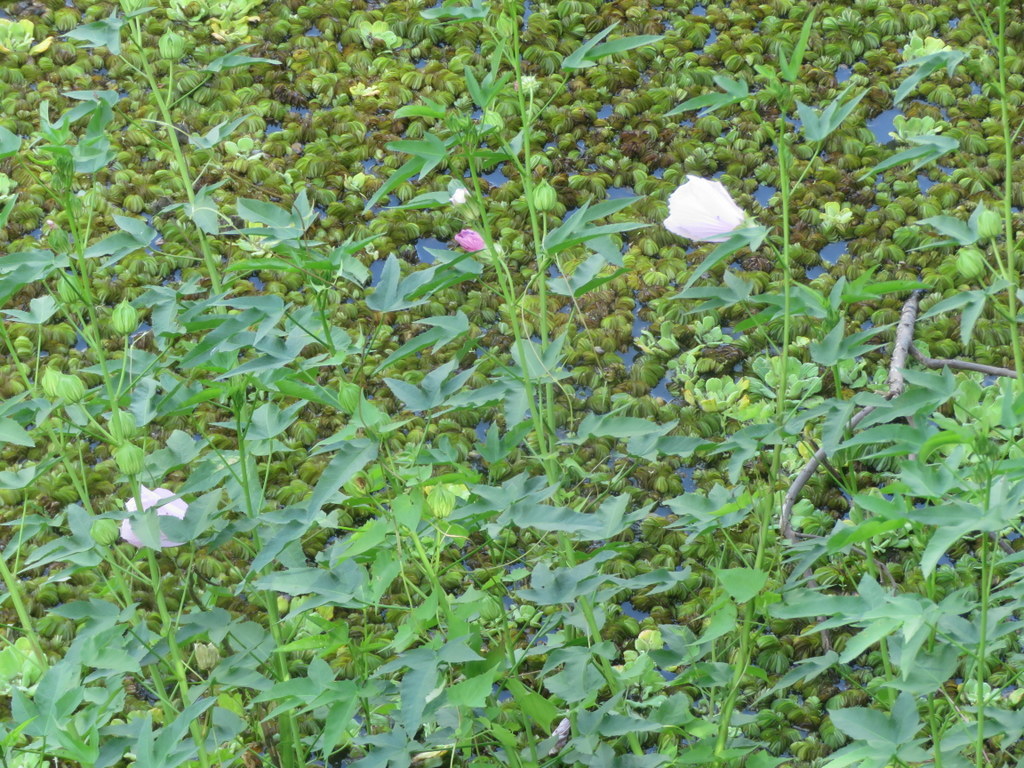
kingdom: Plantae
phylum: Tracheophyta
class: Magnoliopsida
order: Malvales
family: Malvaceae
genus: Hibiscus
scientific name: Hibiscus striatus
